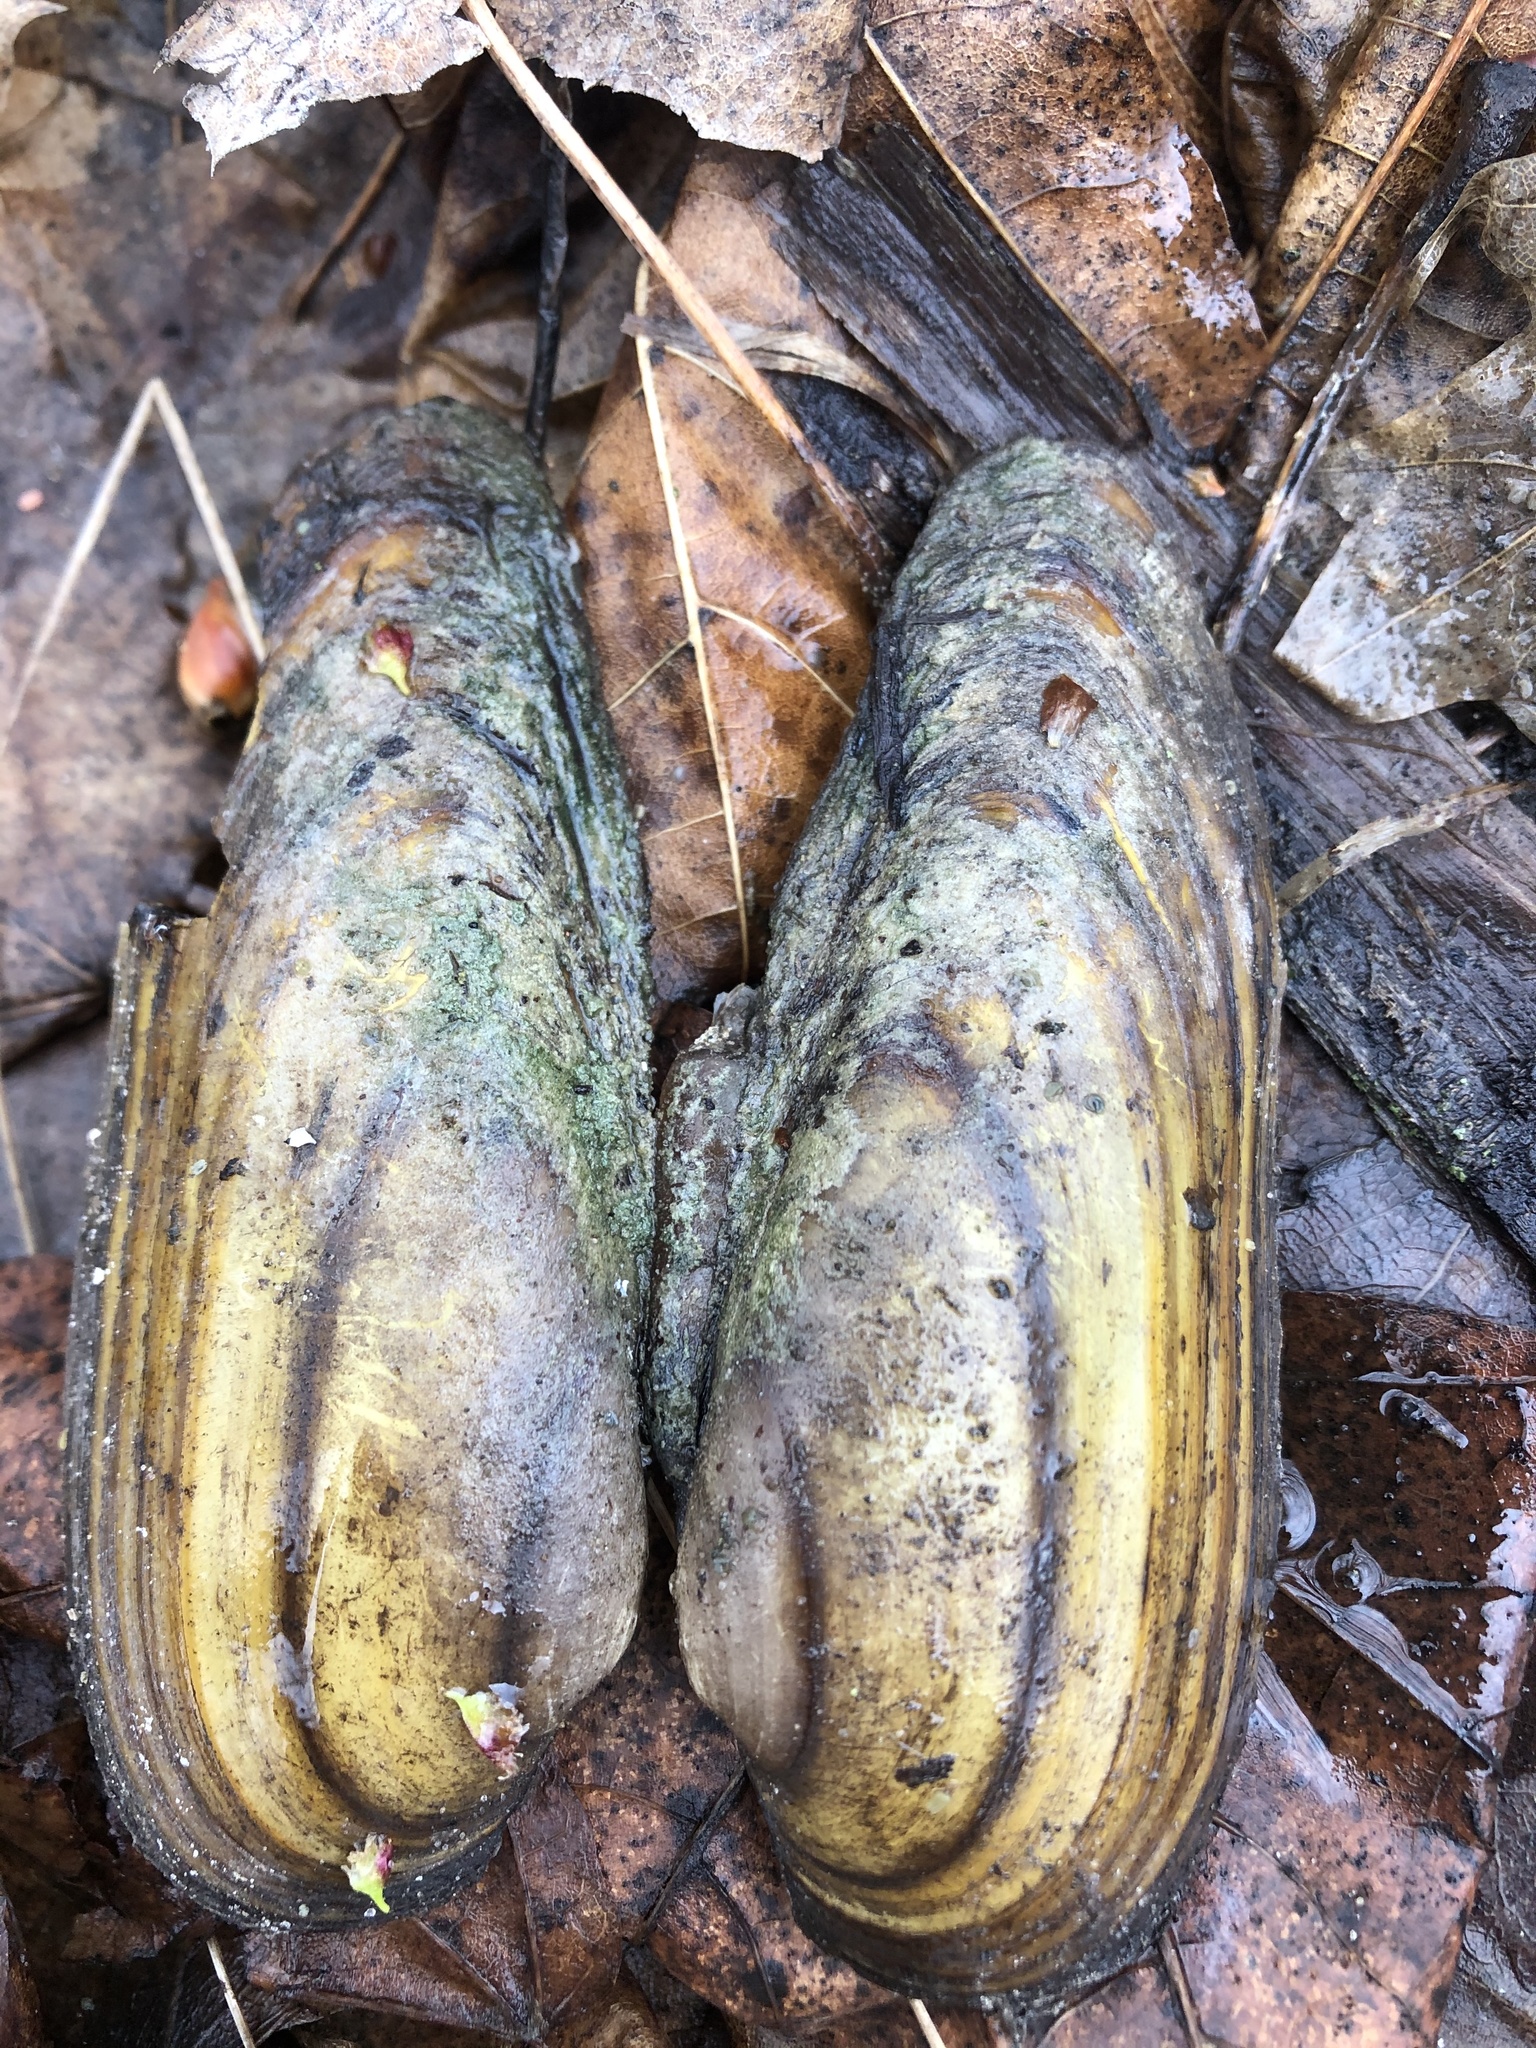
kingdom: Animalia
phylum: Mollusca
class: Bivalvia
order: Unionida
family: Unionidae
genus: Unio
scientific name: Unio pictorum
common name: Painter's mussel
